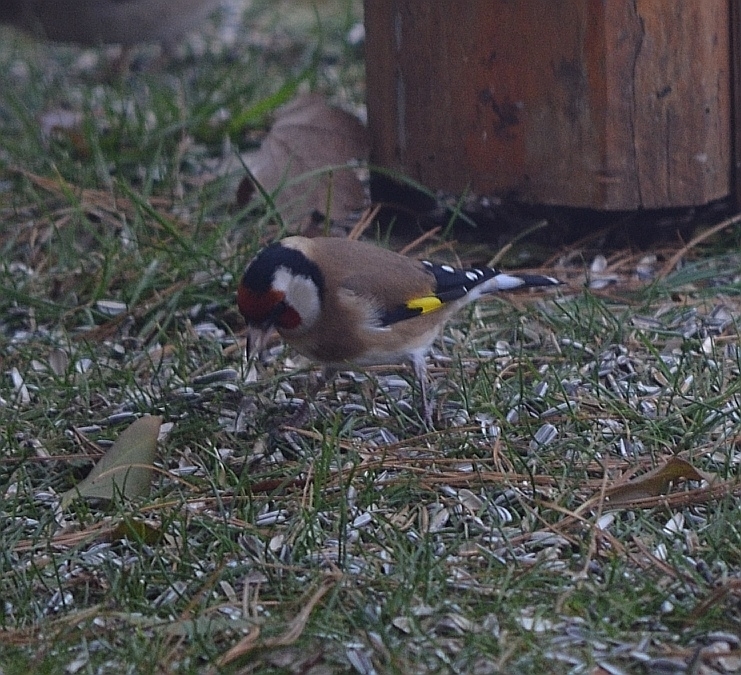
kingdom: Animalia
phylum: Chordata
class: Aves
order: Passeriformes
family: Fringillidae
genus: Carduelis
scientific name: Carduelis carduelis
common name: European goldfinch
